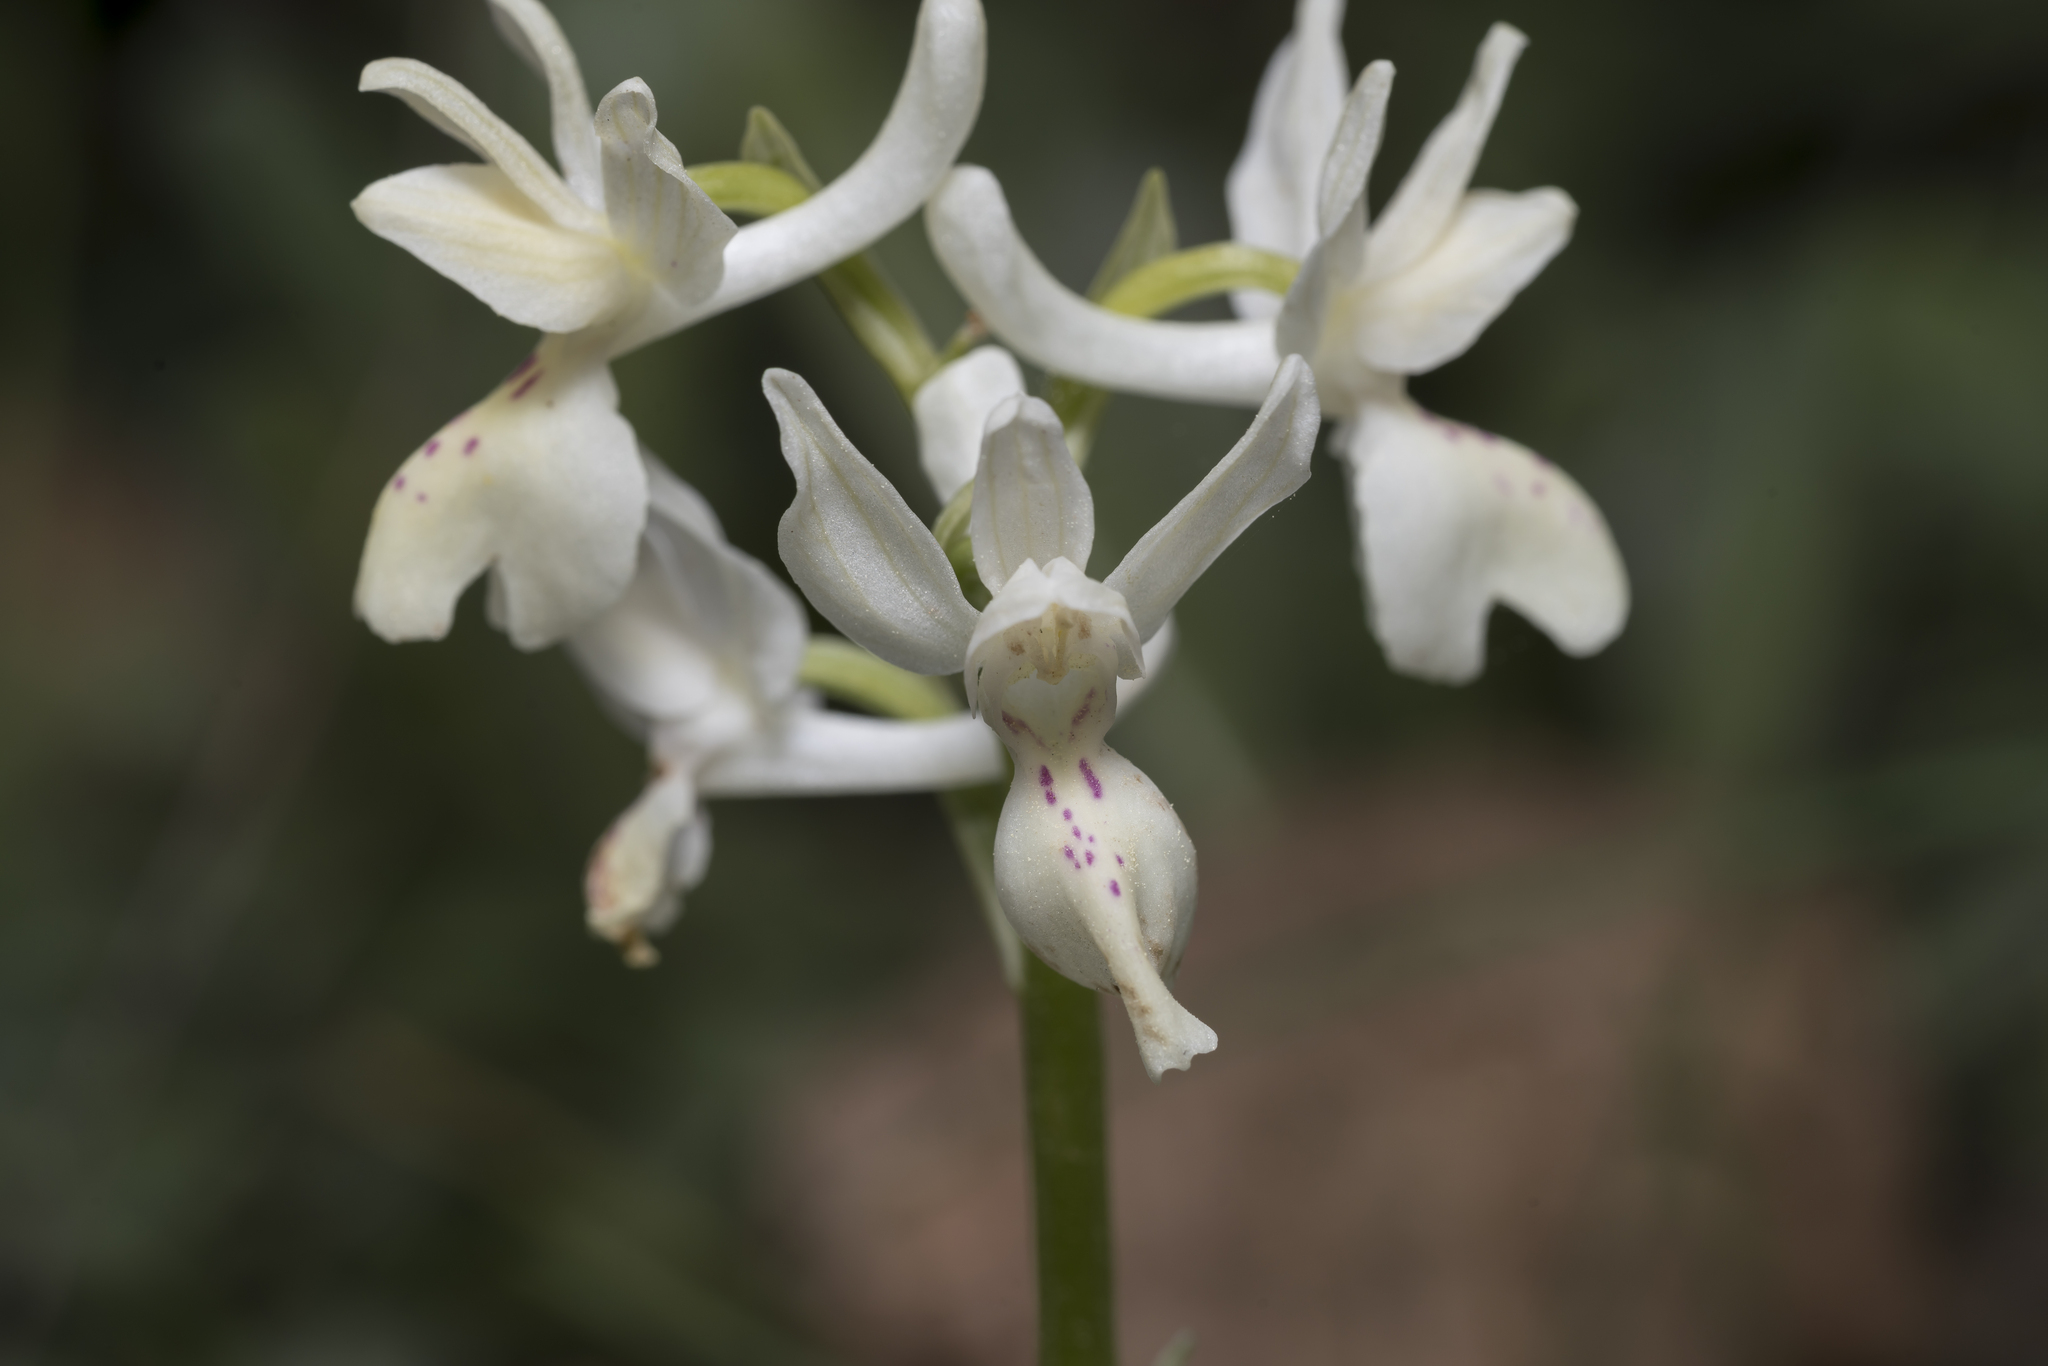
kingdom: Plantae
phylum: Tracheophyta
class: Liliopsida
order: Asparagales
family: Orchidaceae
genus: Orchis
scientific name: Orchis provincialis
